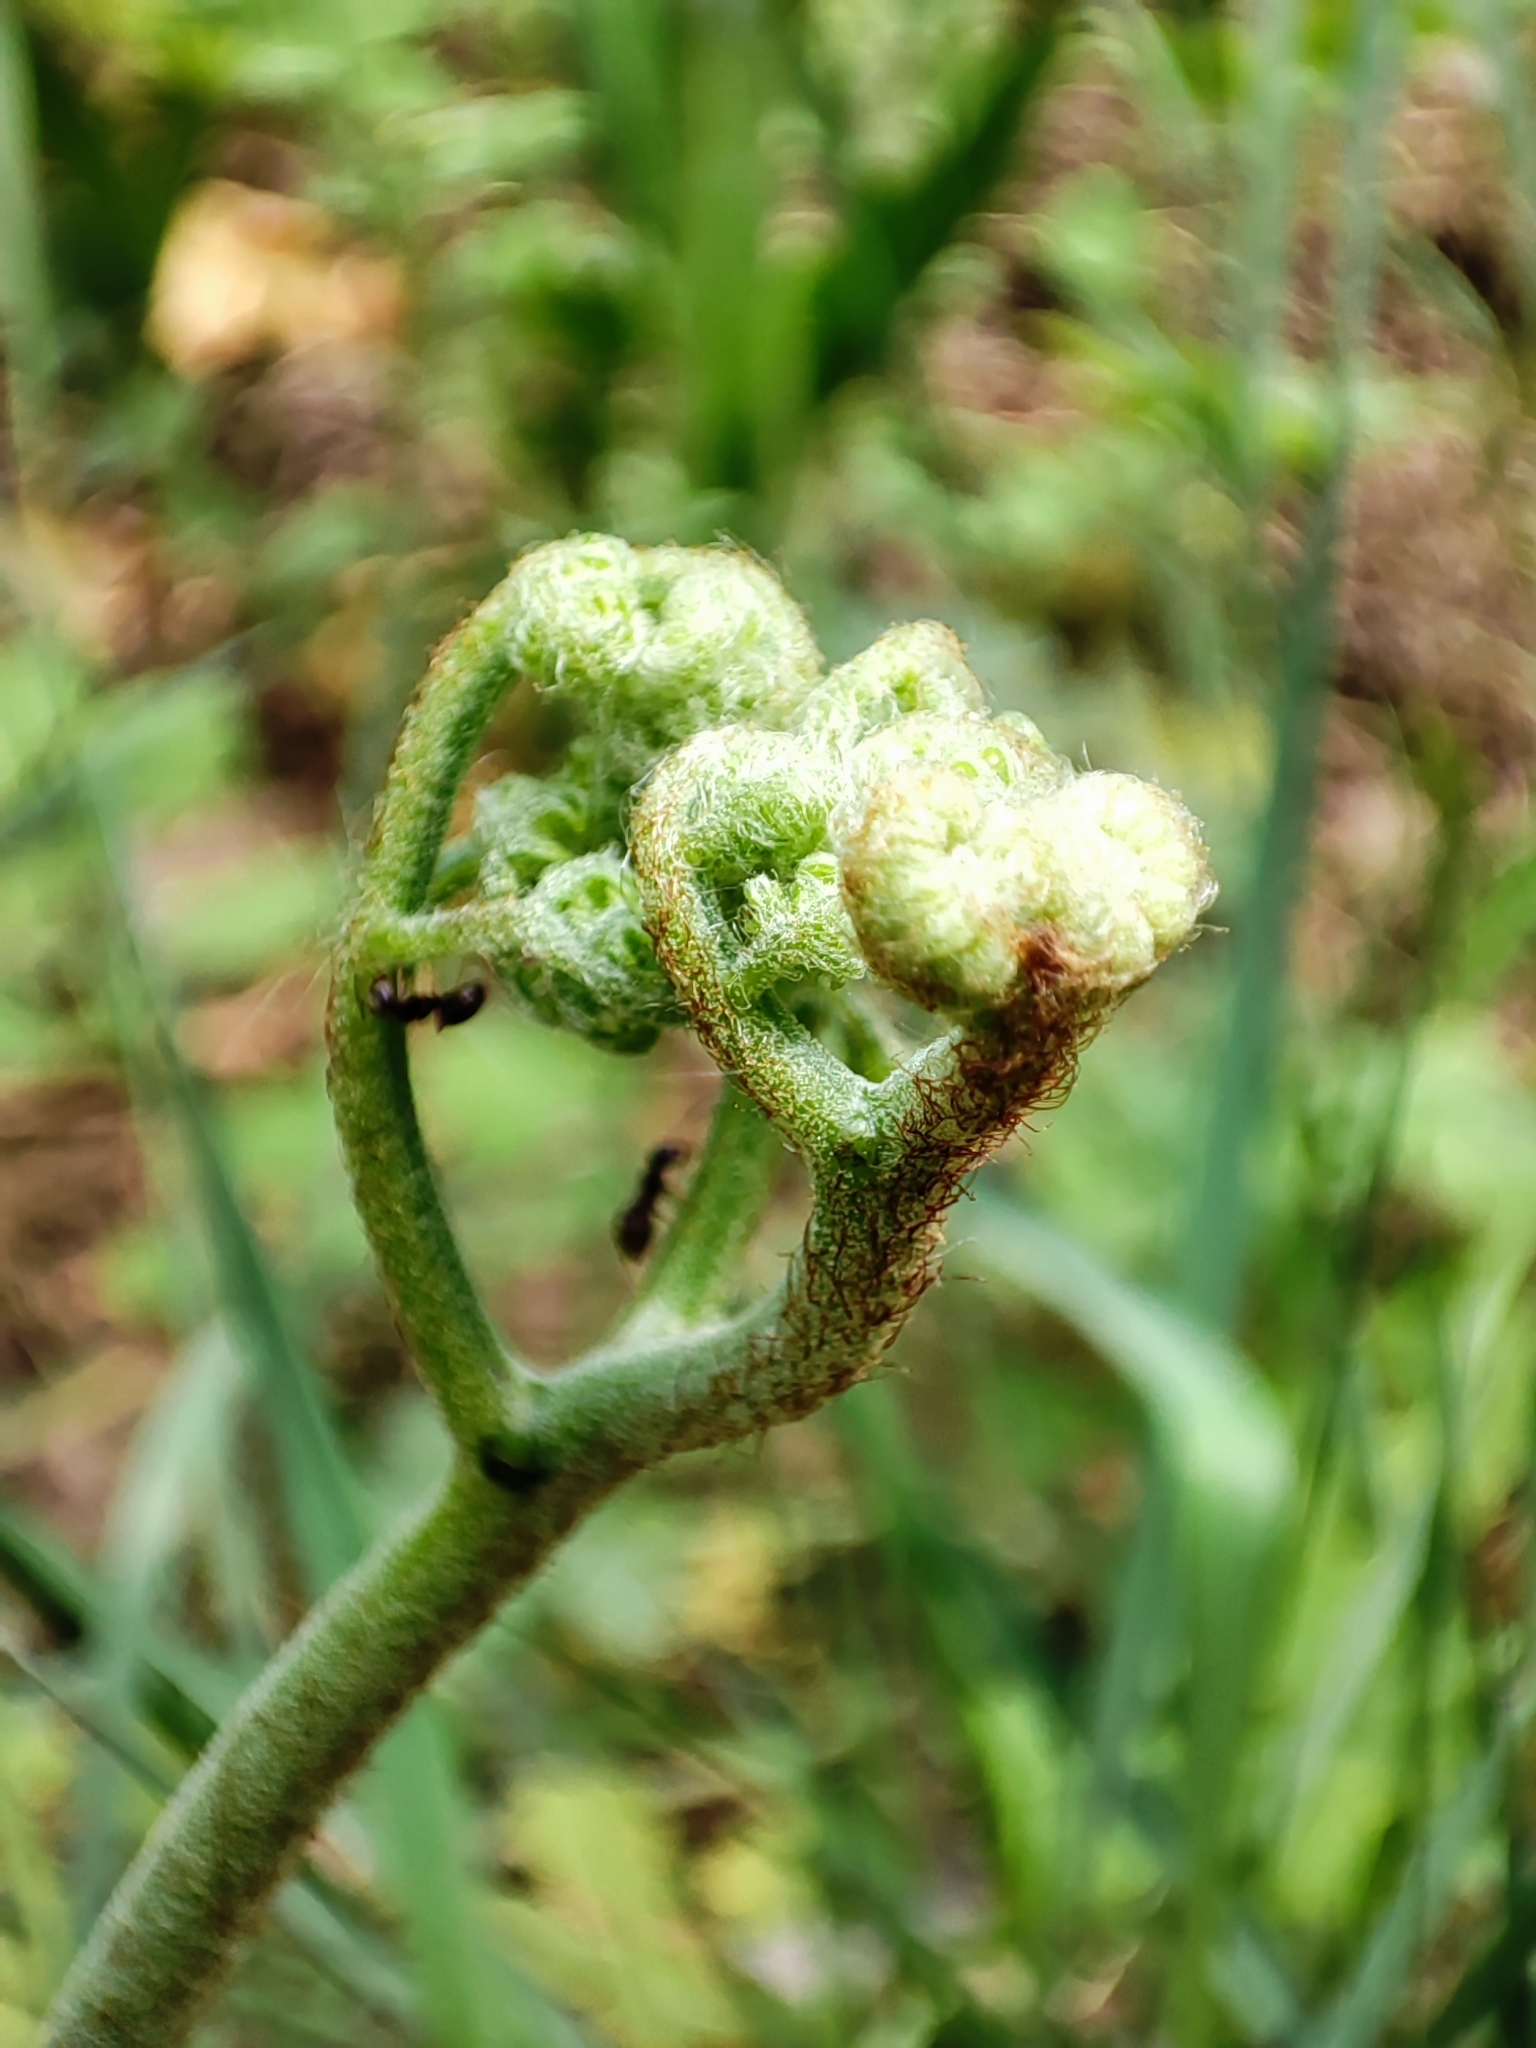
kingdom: Plantae
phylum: Tracheophyta
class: Polypodiopsida
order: Polypodiales
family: Dennstaedtiaceae
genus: Pteridium
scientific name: Pteridium aquilinum
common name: Bracken
